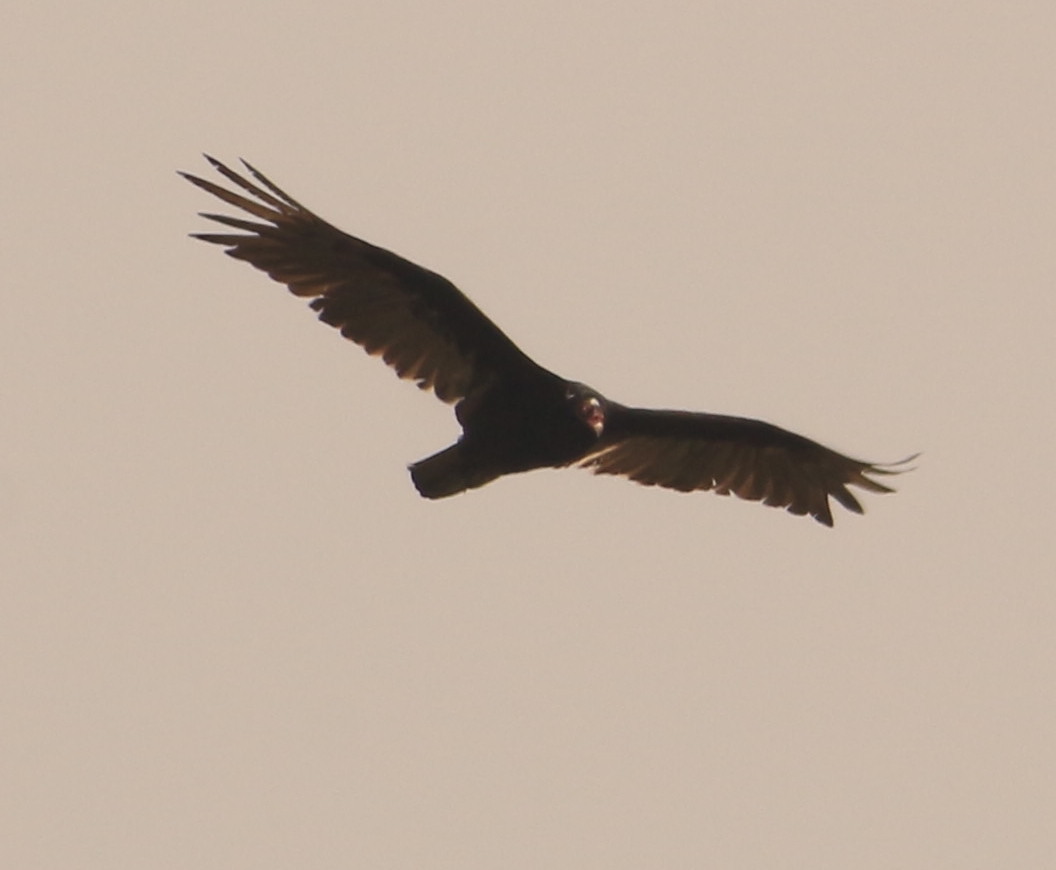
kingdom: Animalia
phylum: Chordata
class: Aves
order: Accipitriformes
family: Cathartidae
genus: Cathartes
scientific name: Cathartes aura
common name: Turkey vulture
